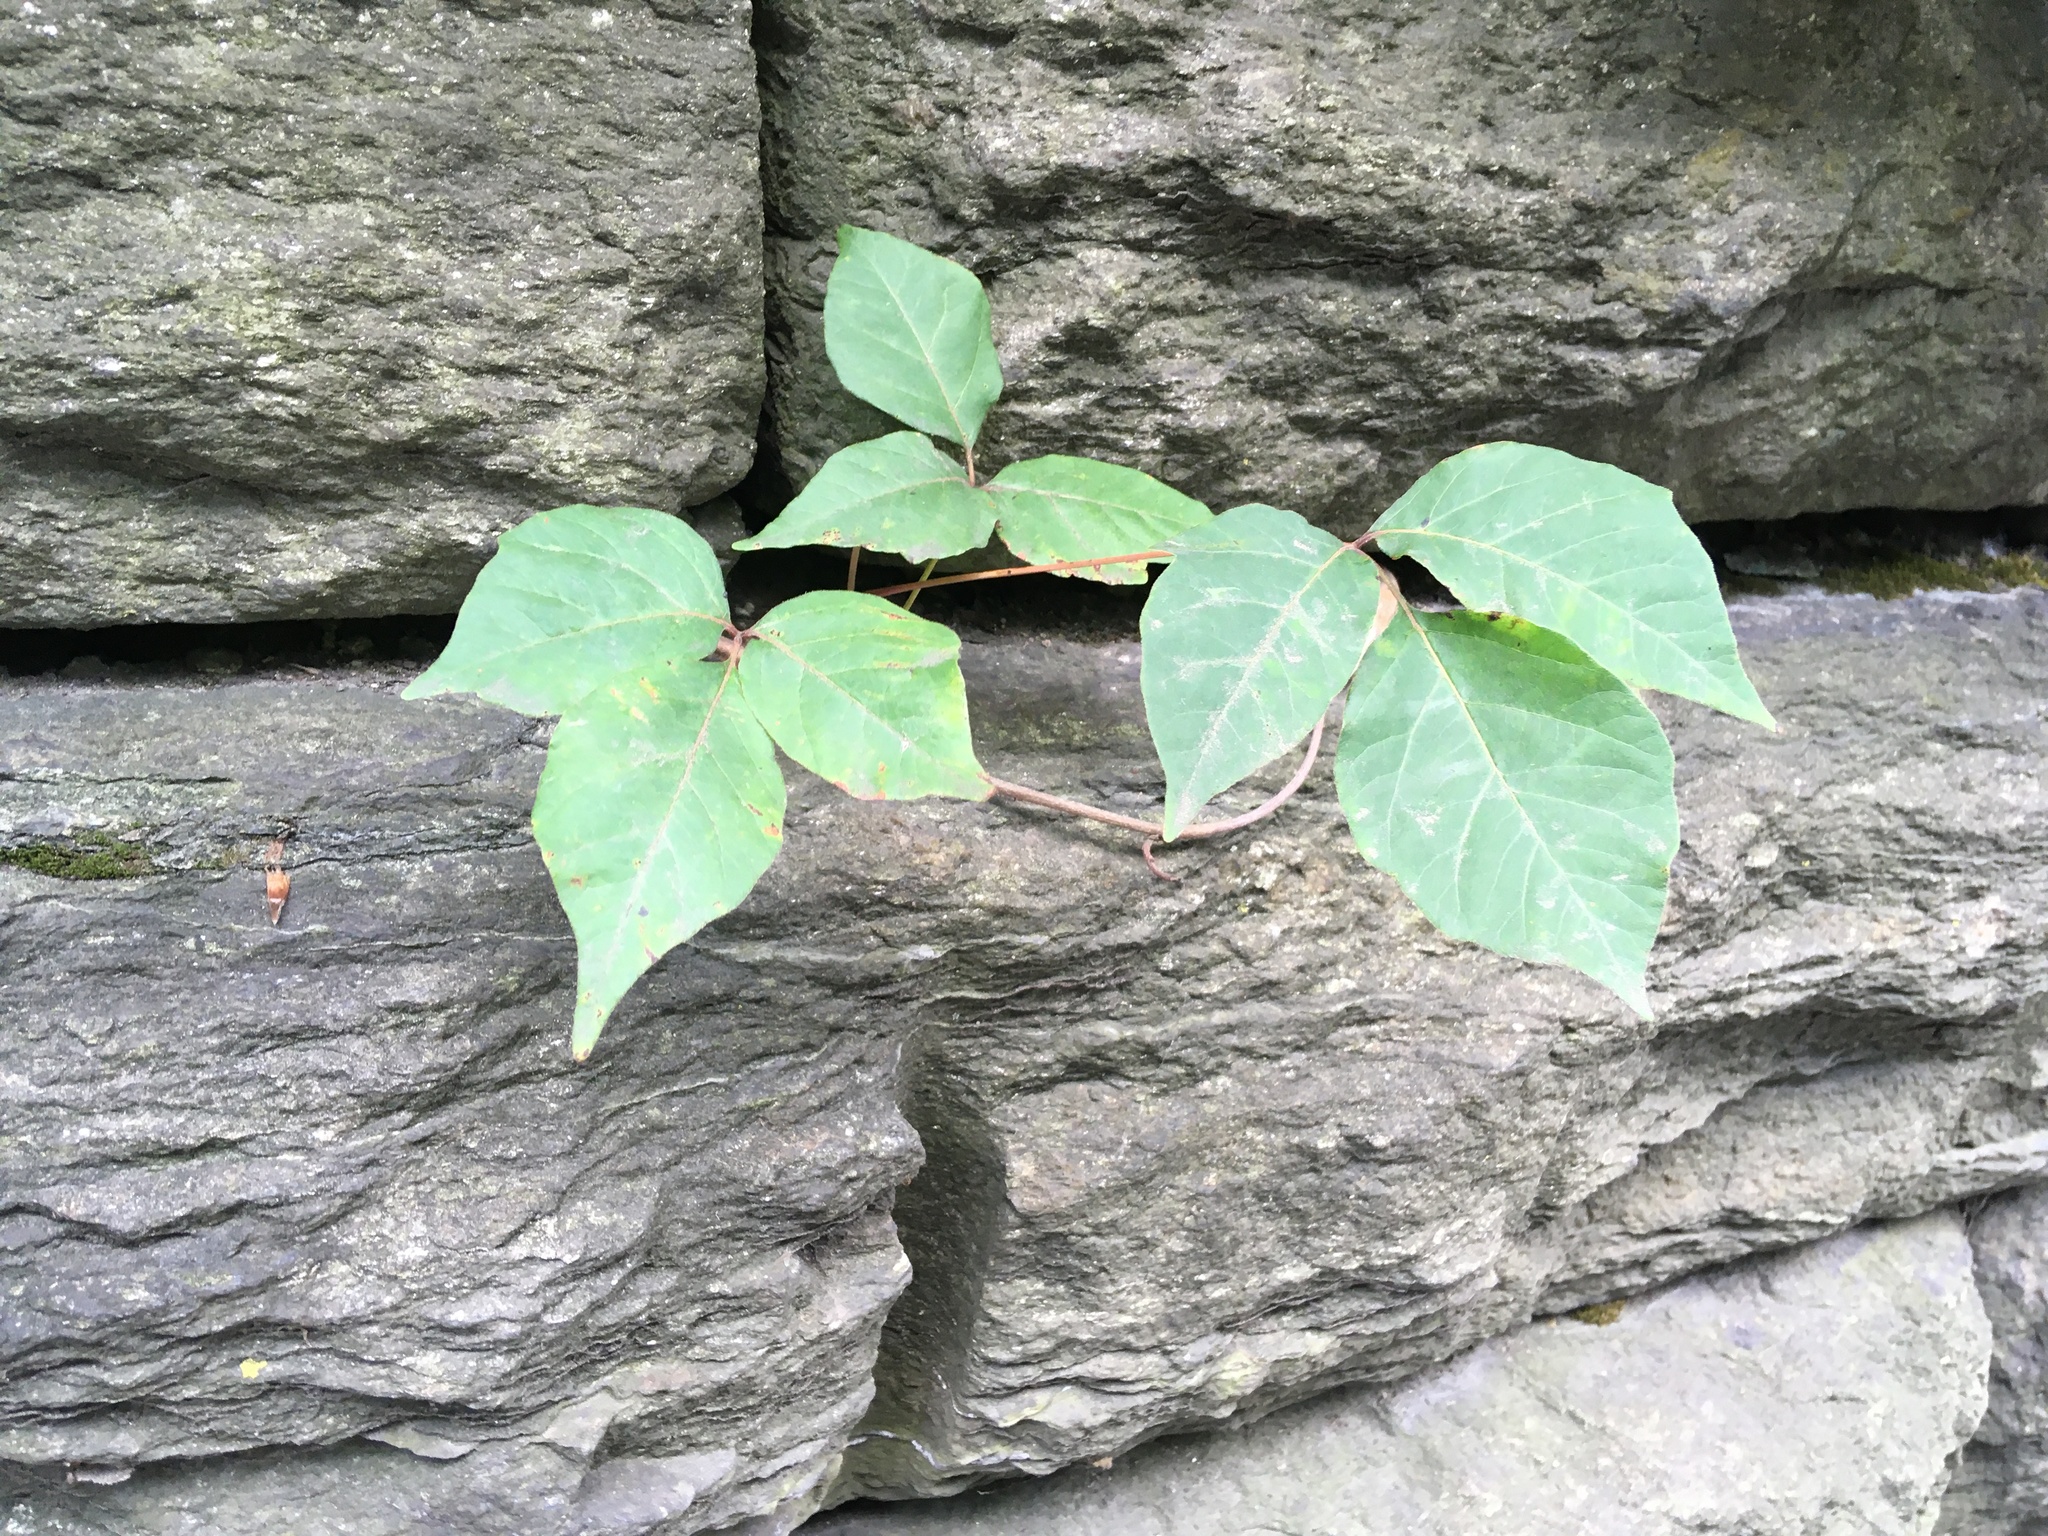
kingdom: Plantae
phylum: Tracheophyta
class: Magnoliopsida
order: Sapindales
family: Anacardiaceae
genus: Toxicodendron
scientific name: Toxicodendron radicans
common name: Poison ivy
